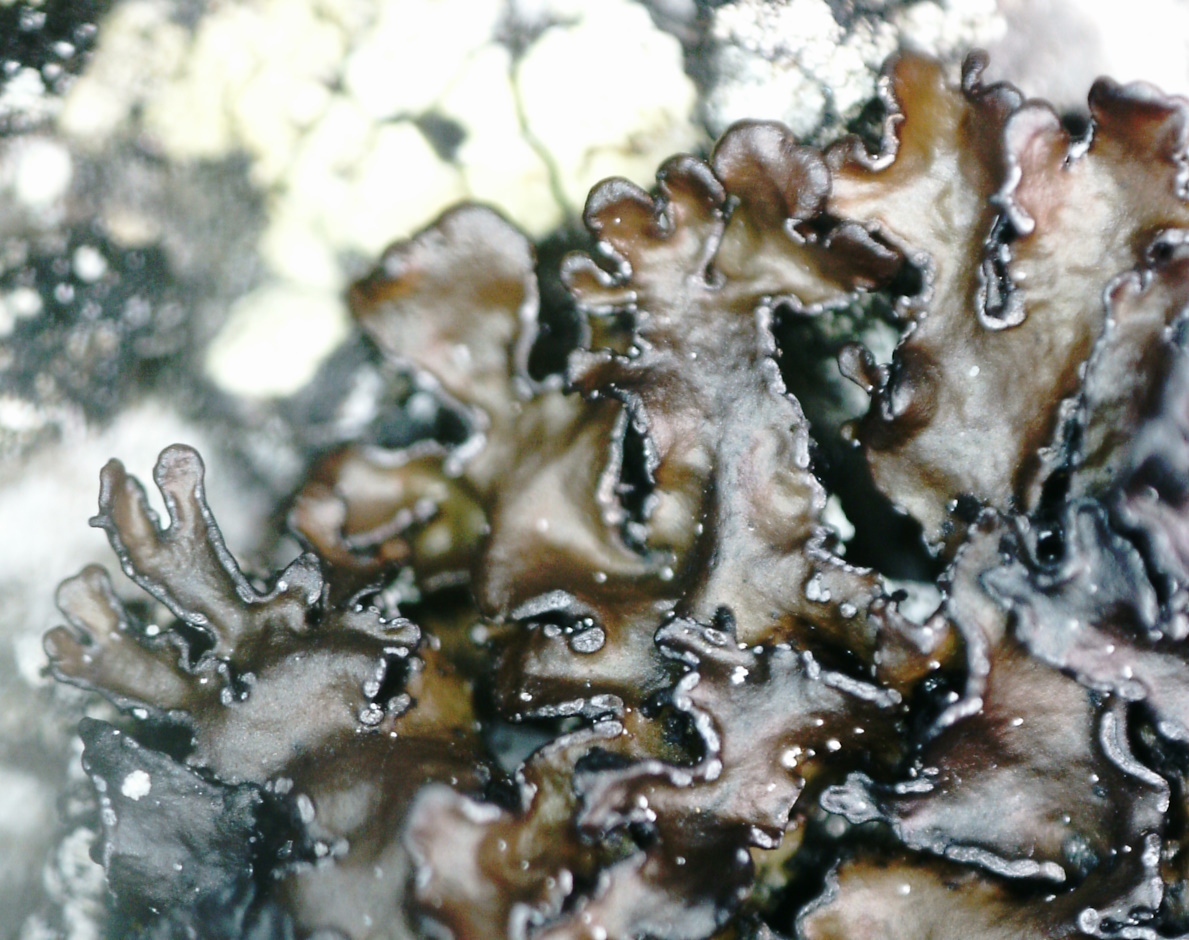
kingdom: Fungi
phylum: Ascomycota
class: Lecanoromycetes
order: Lecanorales
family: Parmeliaceae
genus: Melanelia
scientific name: Melanelia hepatizon
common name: Rimmed camouflage lichen
